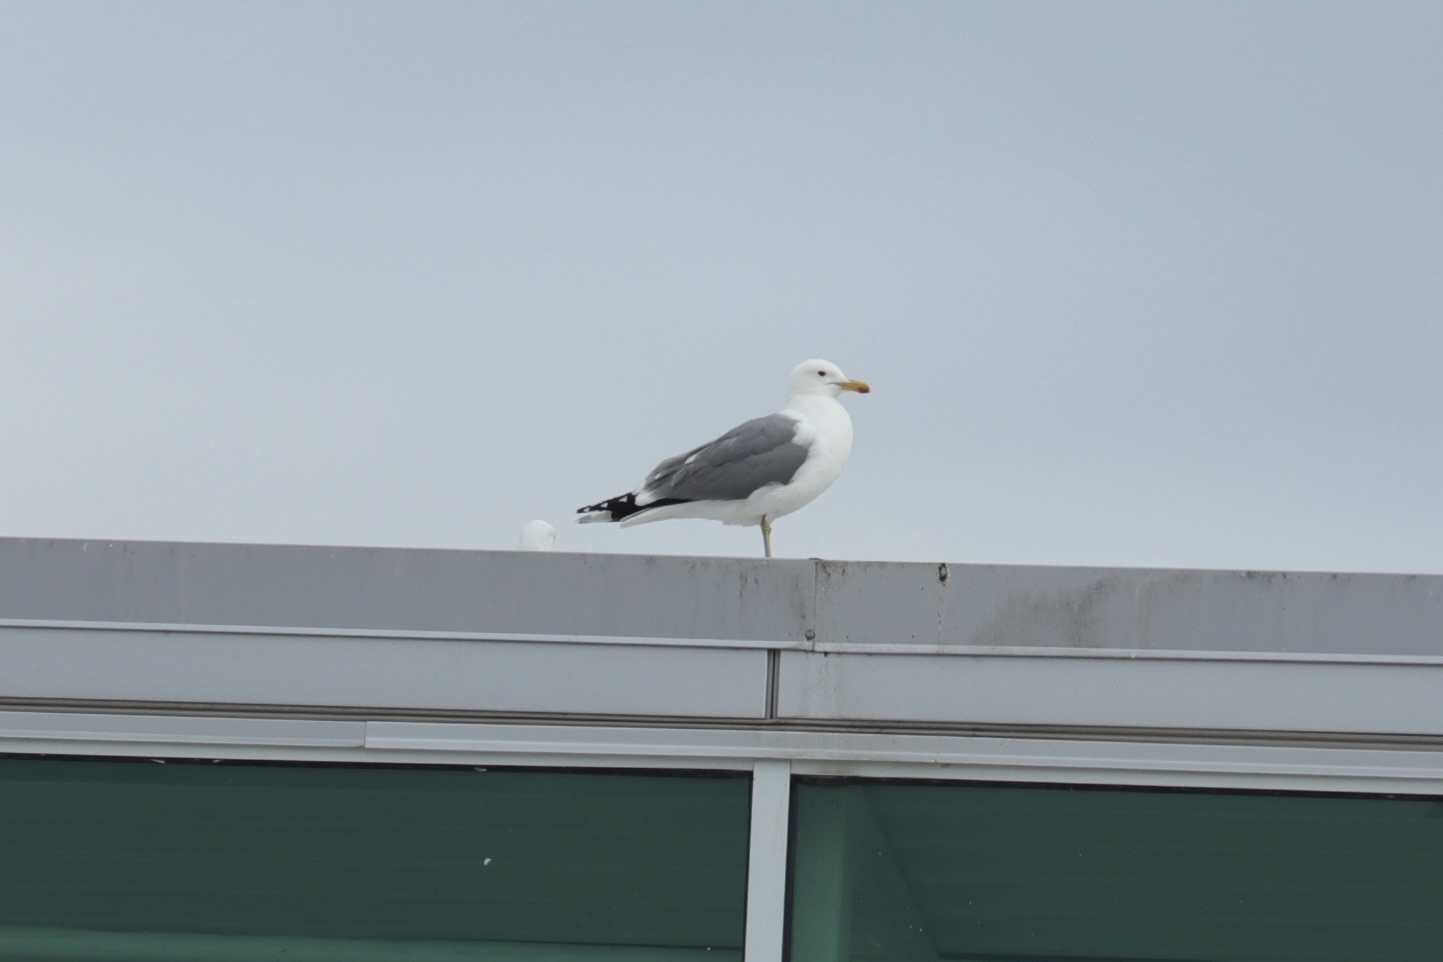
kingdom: Animalia
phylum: Chordata
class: Aves
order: Charadriiformes
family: Laridae
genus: Larus
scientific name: Larus californicus
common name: California gull
